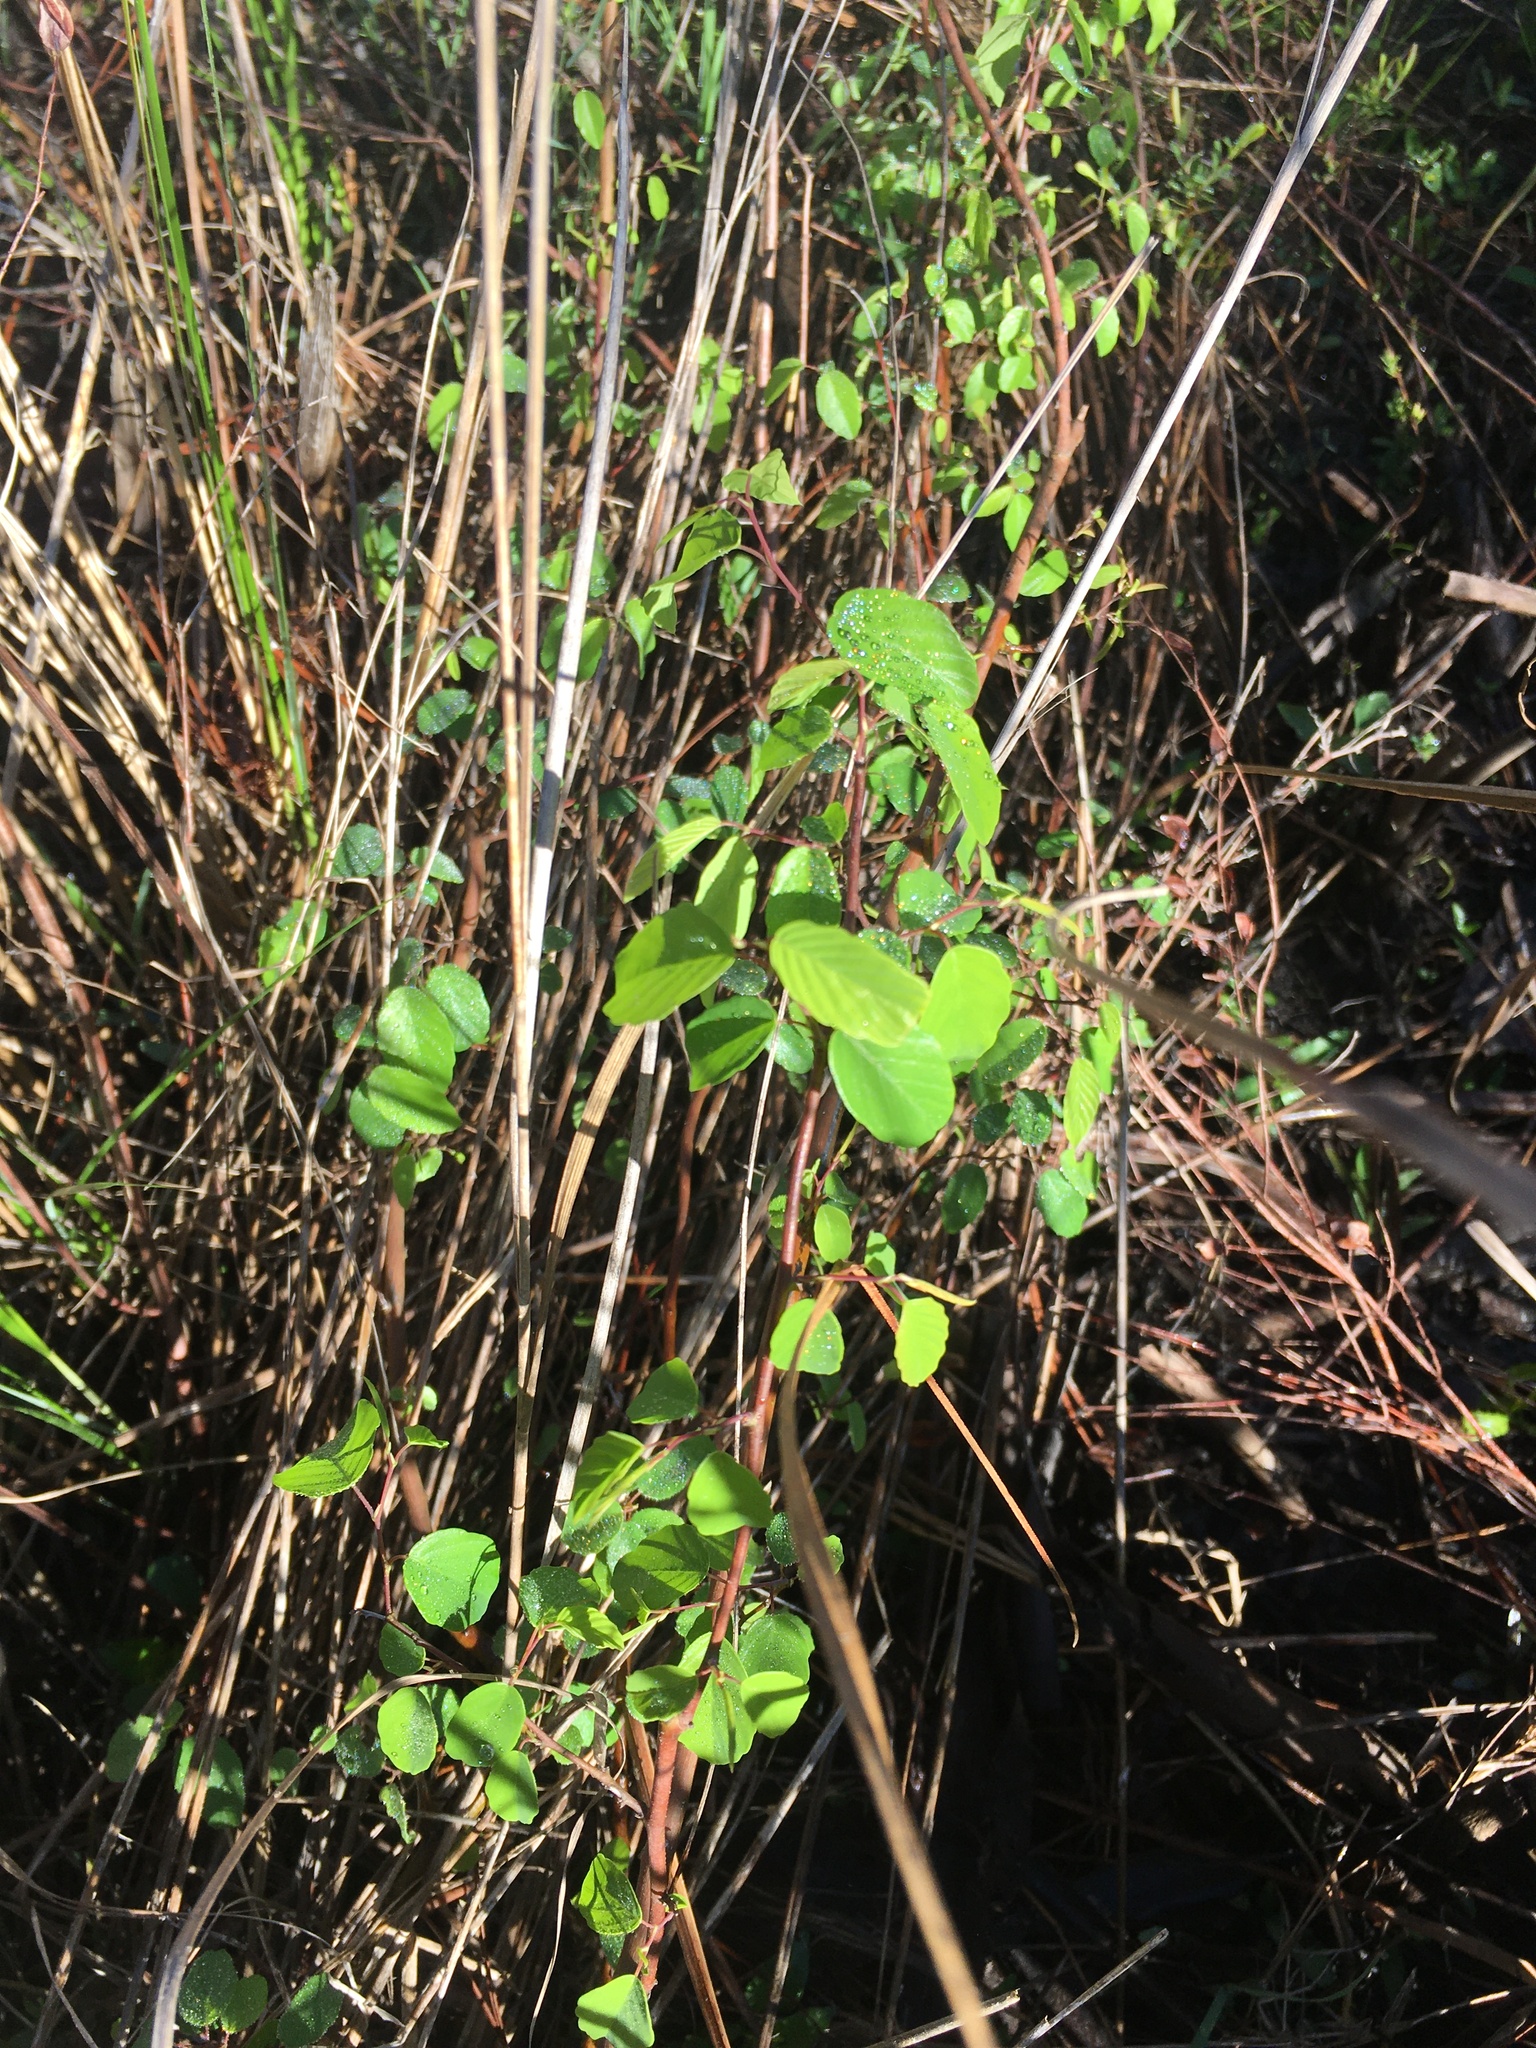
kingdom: Plantae
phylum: Tracheophyta
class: Magnoliopsida
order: Rosales
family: Rhamnaceae
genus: Berchemia
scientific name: Berchemia scandens
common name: Supplejack
